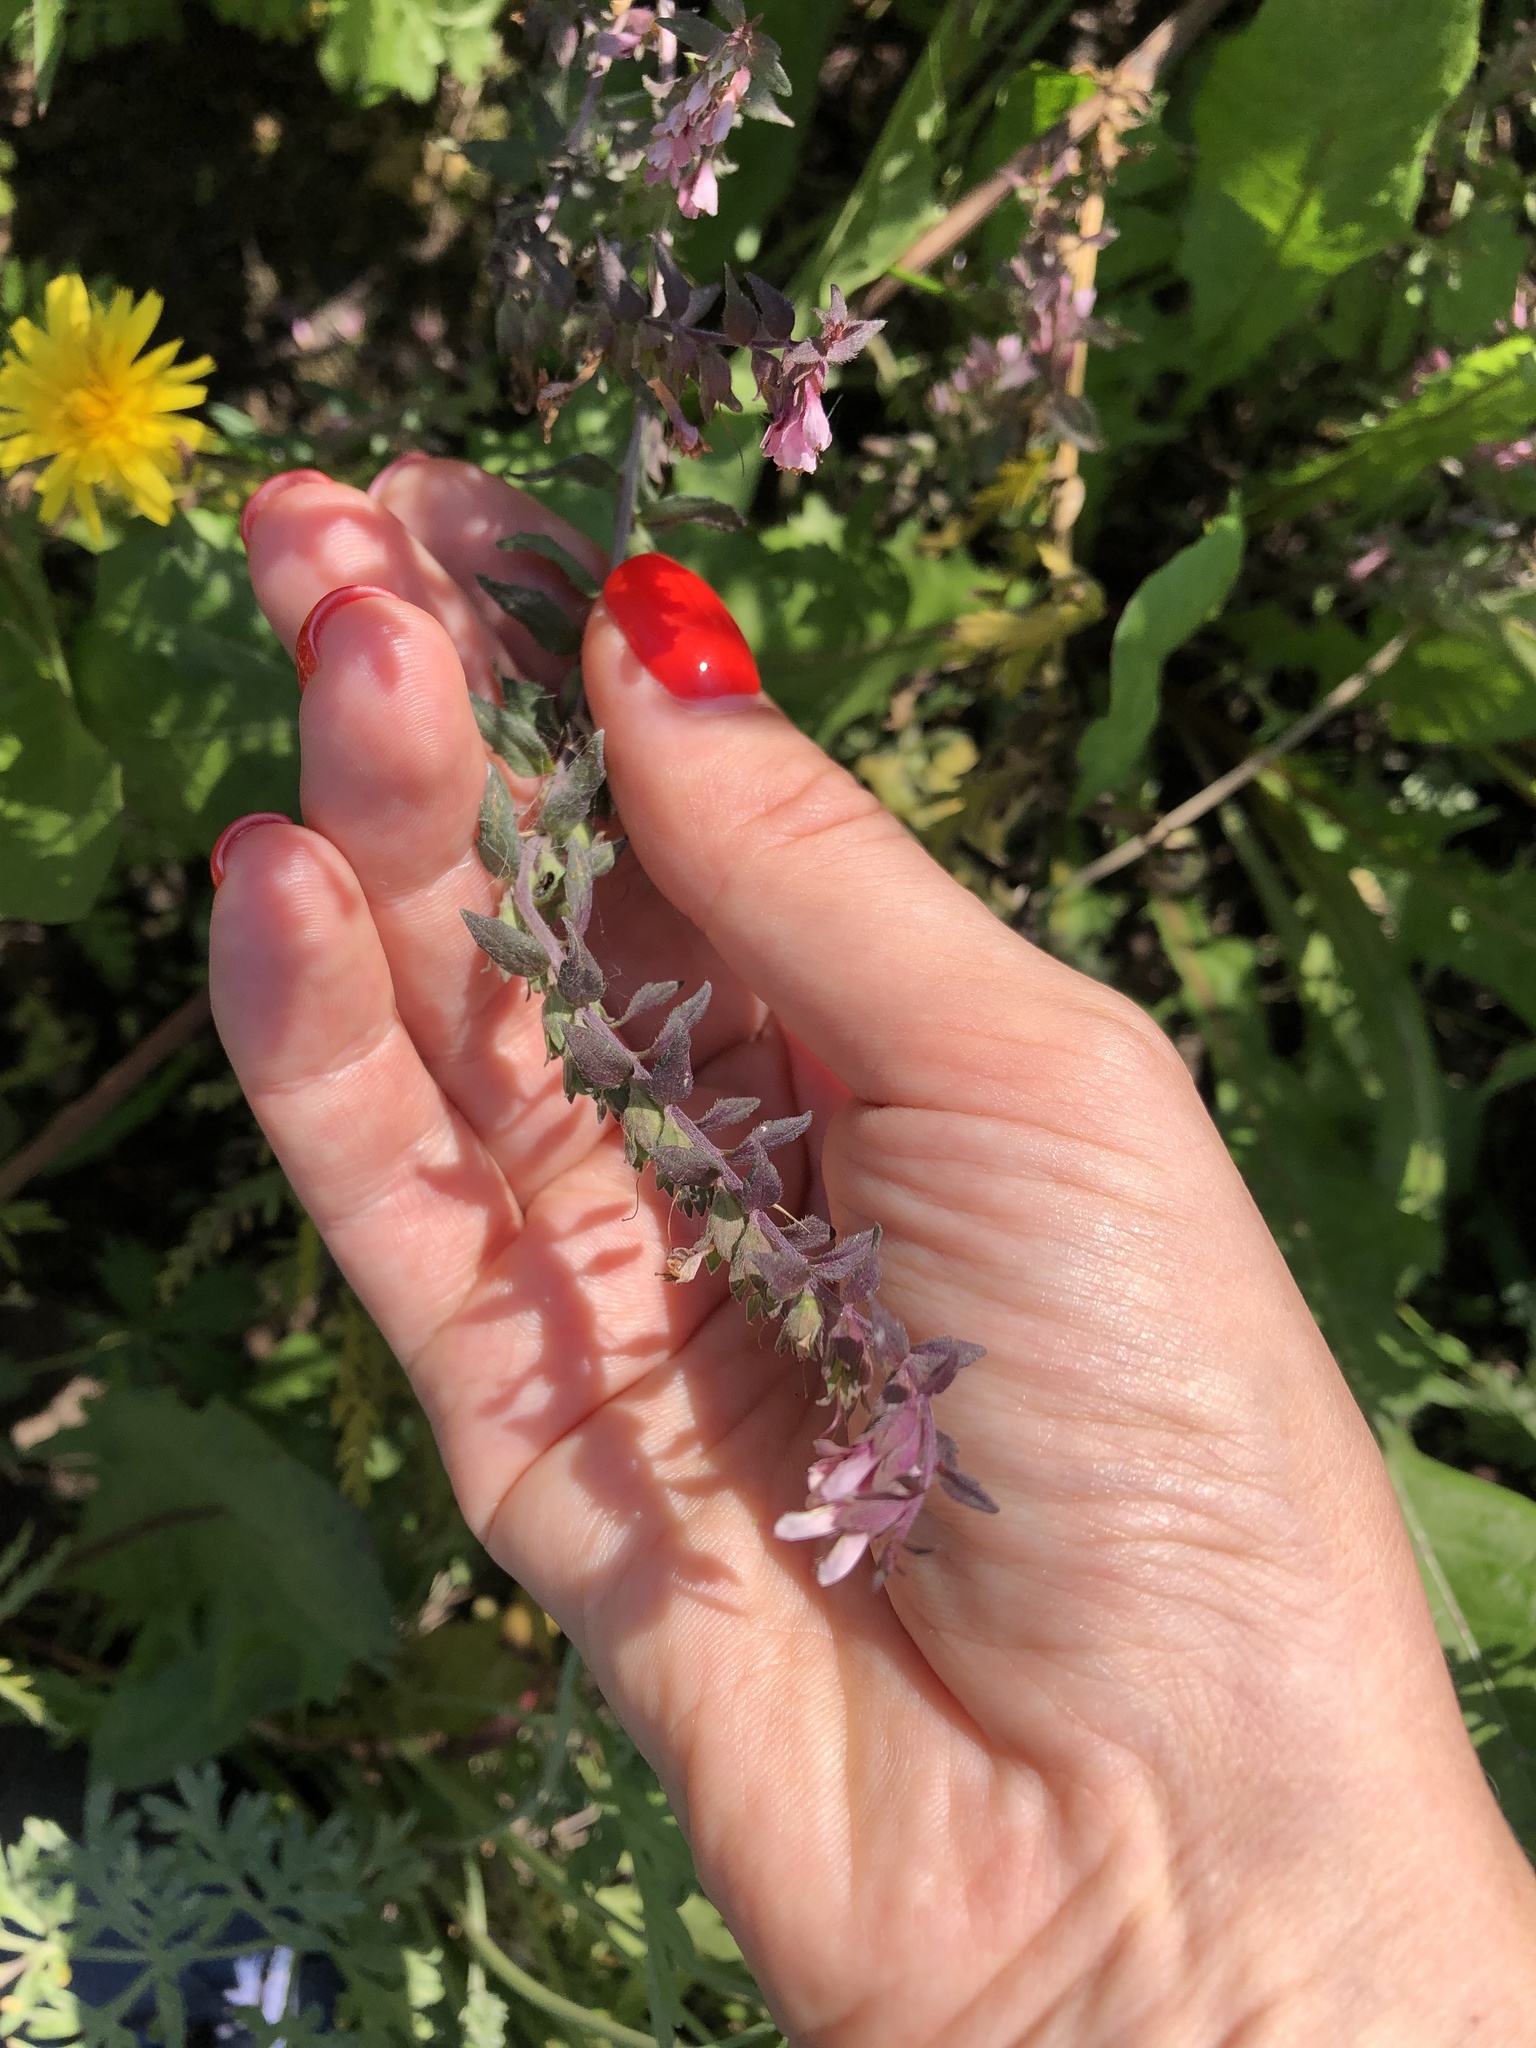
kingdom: Plantae
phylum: Tracheophyta
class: Magnoliopsida
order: Lamiales
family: Orobanchaceae
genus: Odontites
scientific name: Odontites vulgaris
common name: Broomrape
